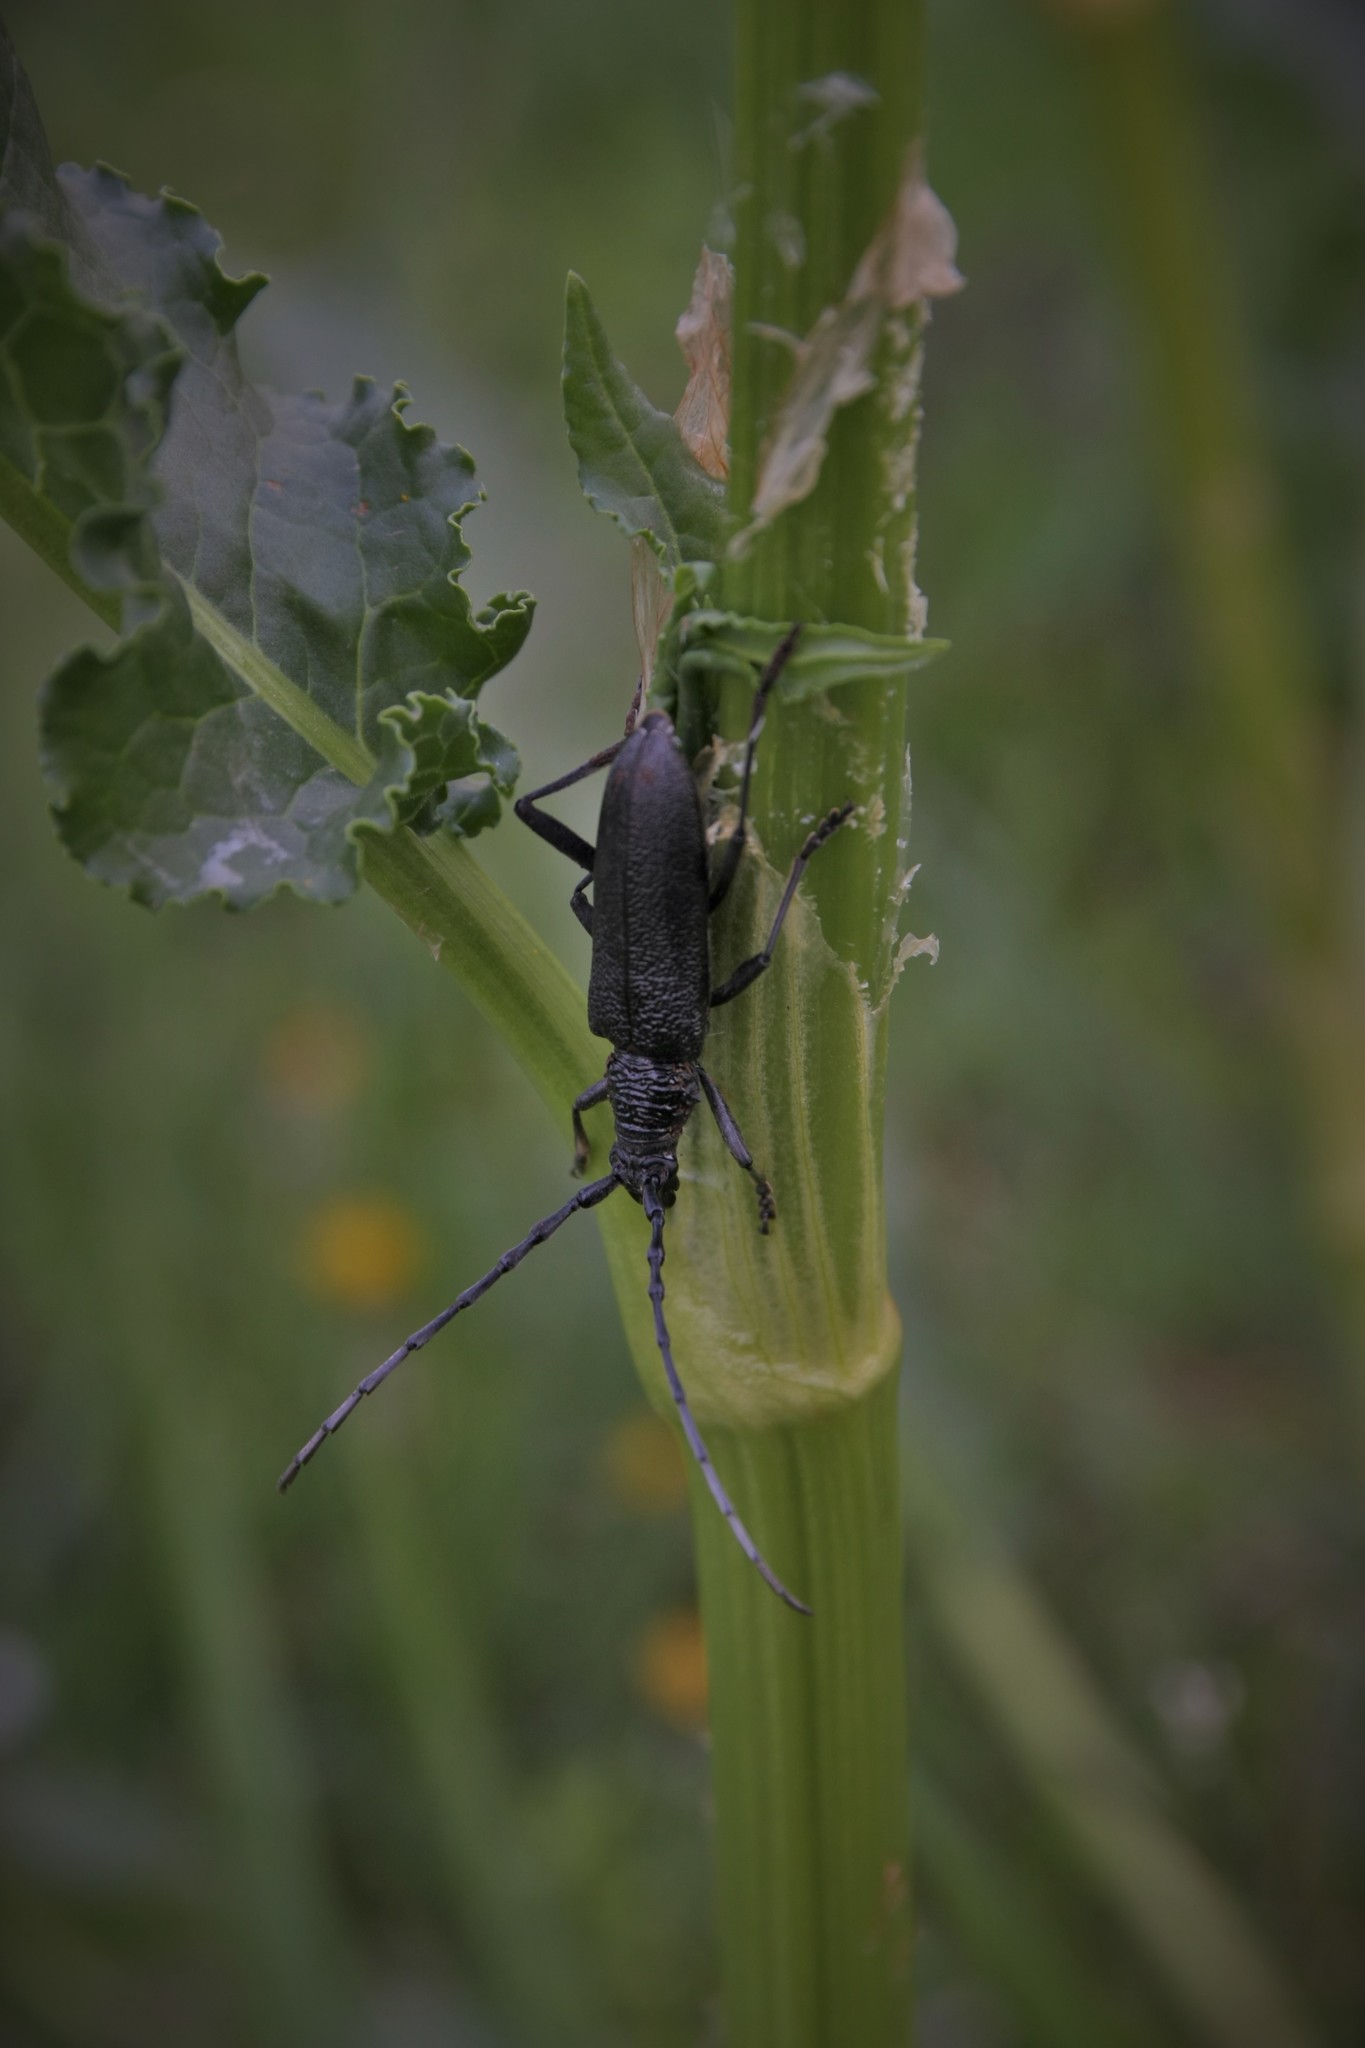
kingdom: Animalia
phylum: Arthropoda
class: Insecta
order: Coleoptera
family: Cerambycidae
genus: Cerambyx
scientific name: Cerambyx scopolii
